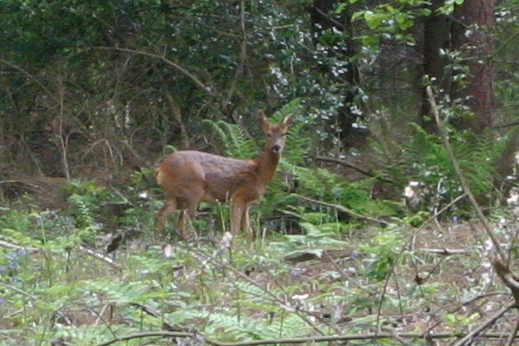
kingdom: Animalia
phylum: Chordata
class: Mammalia
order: Artiodactyla
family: Cervidae
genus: Capreolus
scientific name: Capreolus capreolus
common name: Western roe deer
